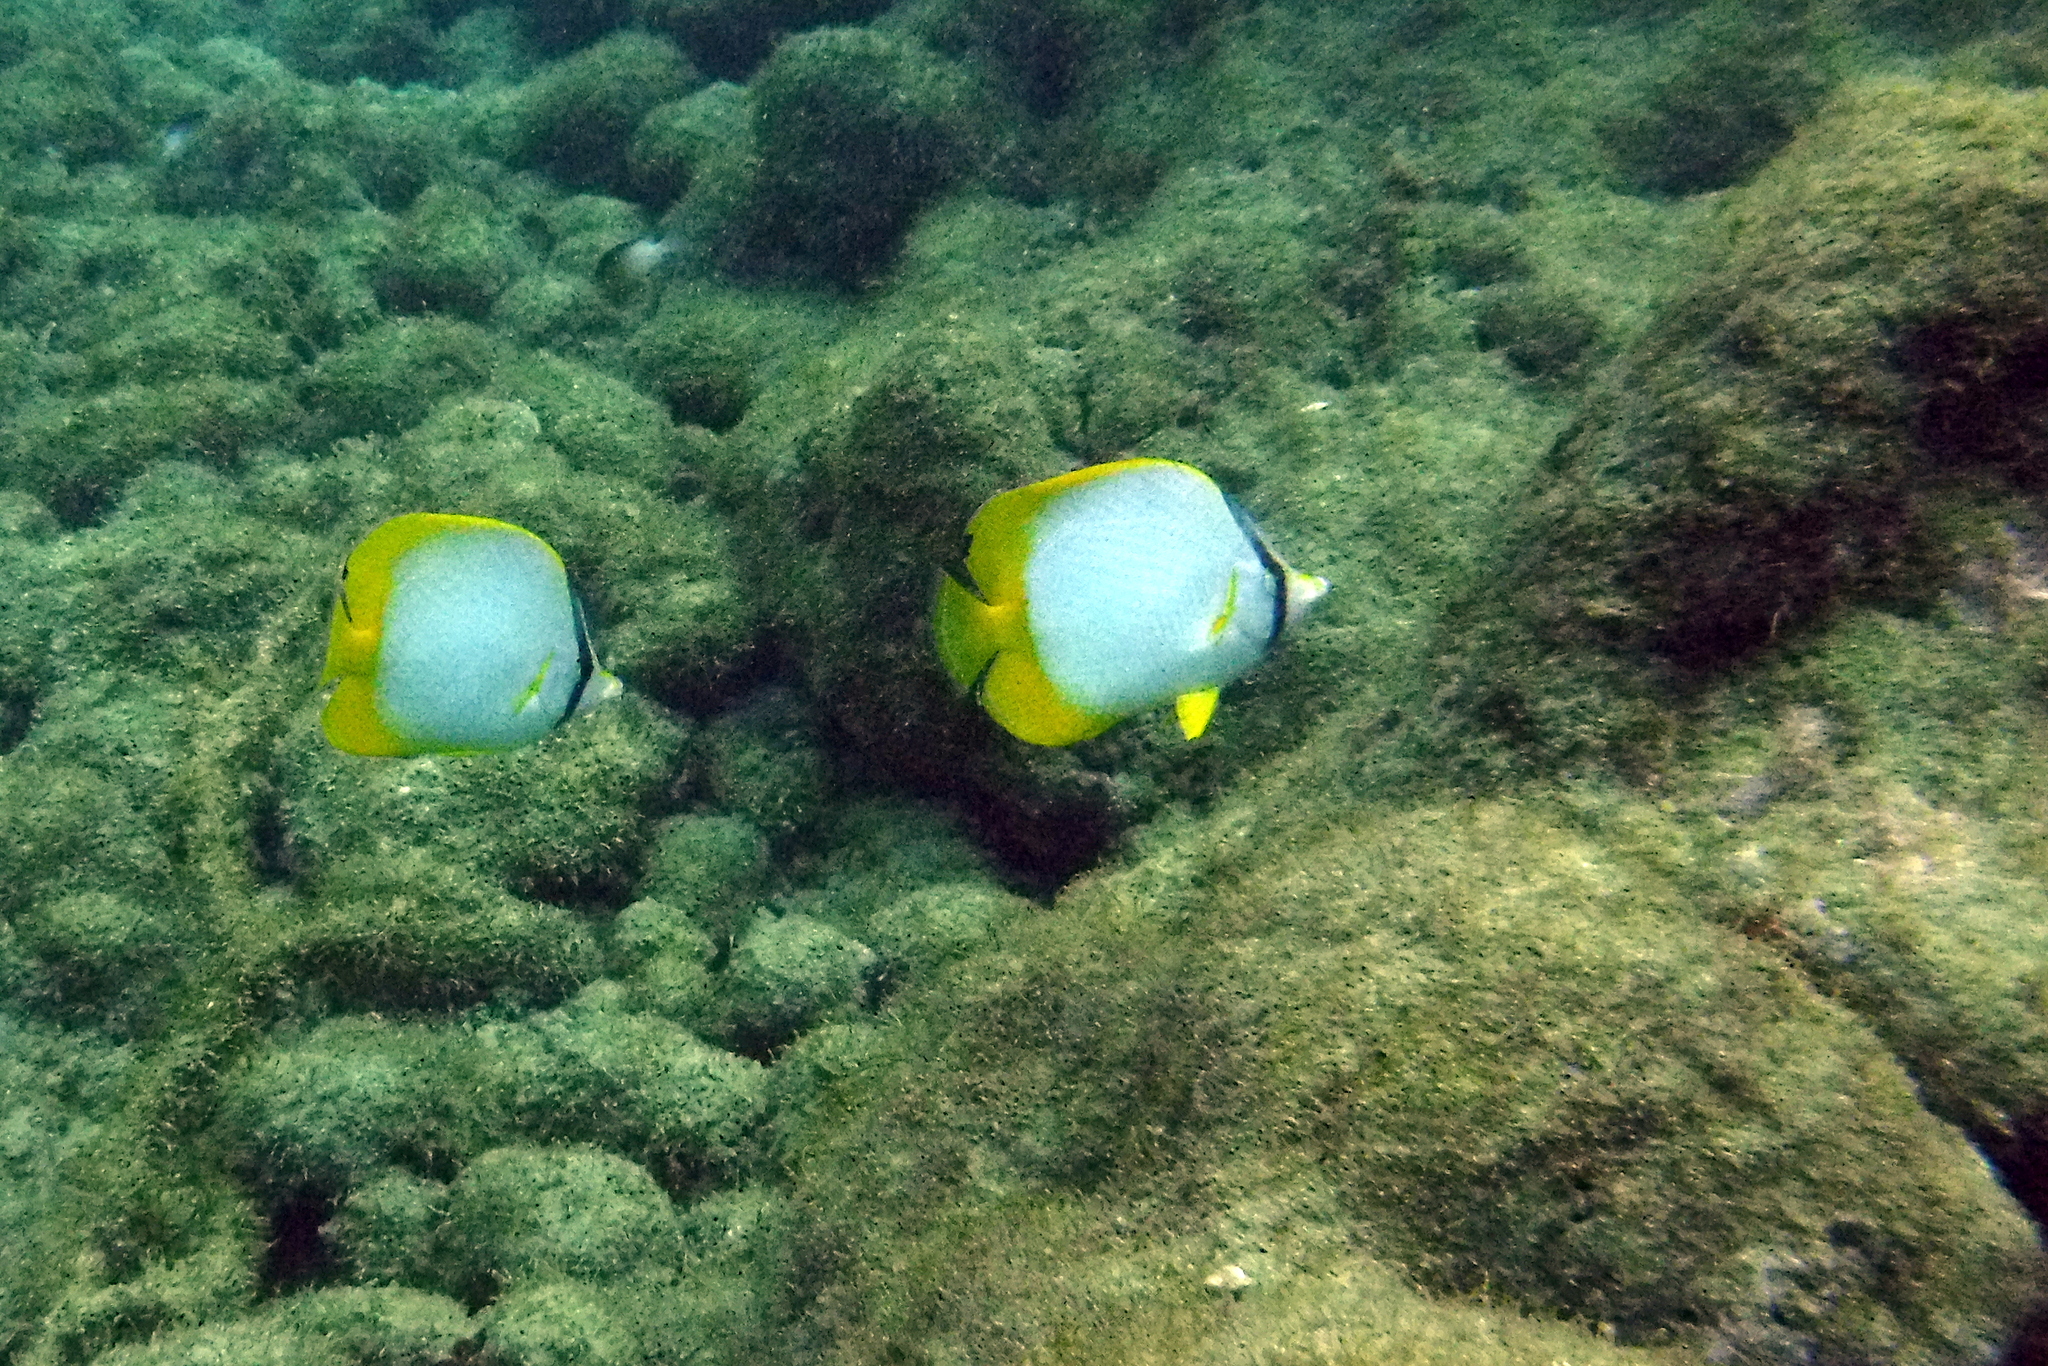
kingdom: Animalia
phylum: Chordata
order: Perciformes
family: Chaetodontidae
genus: Chaetodon
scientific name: Chaetodon ocellatus
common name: Spotfin butterflyfish
